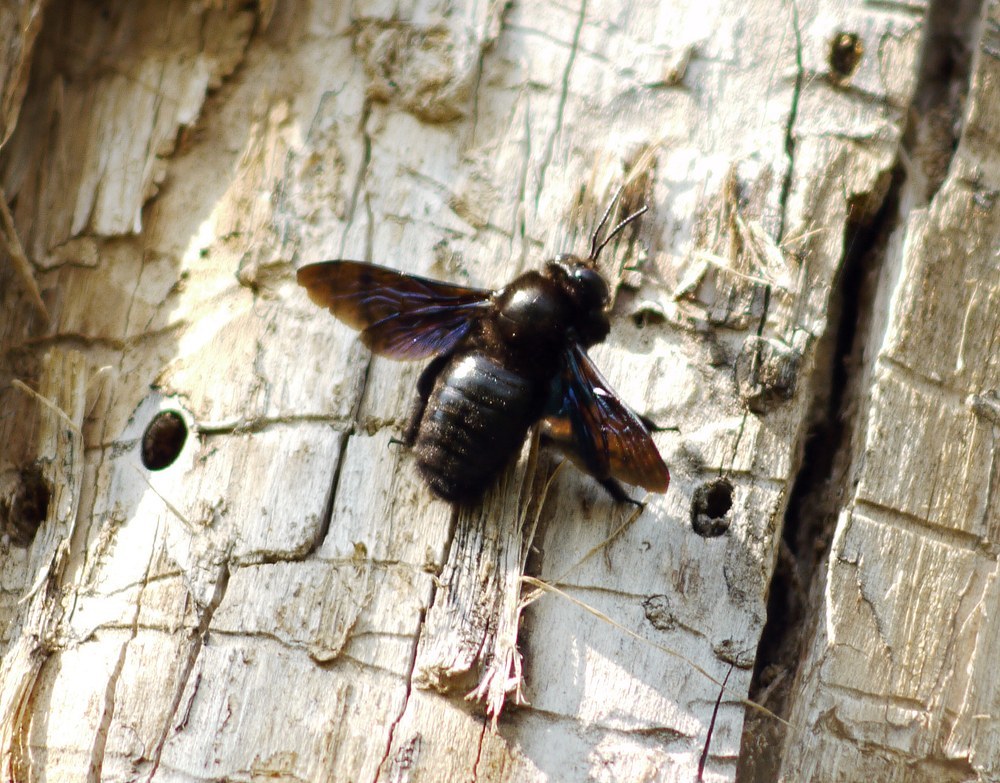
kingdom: Animalia
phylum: Arthropoda
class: Insecta
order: Hymenoptera
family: Apidae
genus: Xylocopa
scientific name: Xylocopa valga
